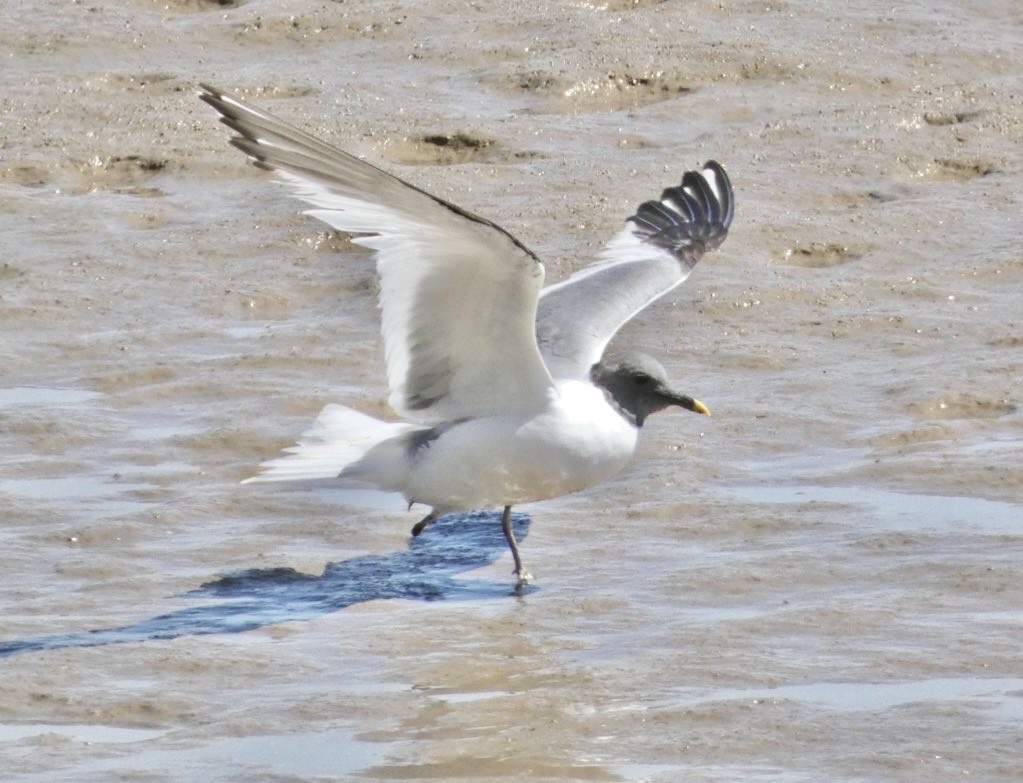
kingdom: Animalia
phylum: Chordata
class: Aves
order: Charadriiformes
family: Laridae
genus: Xema
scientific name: Xema sabini
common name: Sabine's gull
